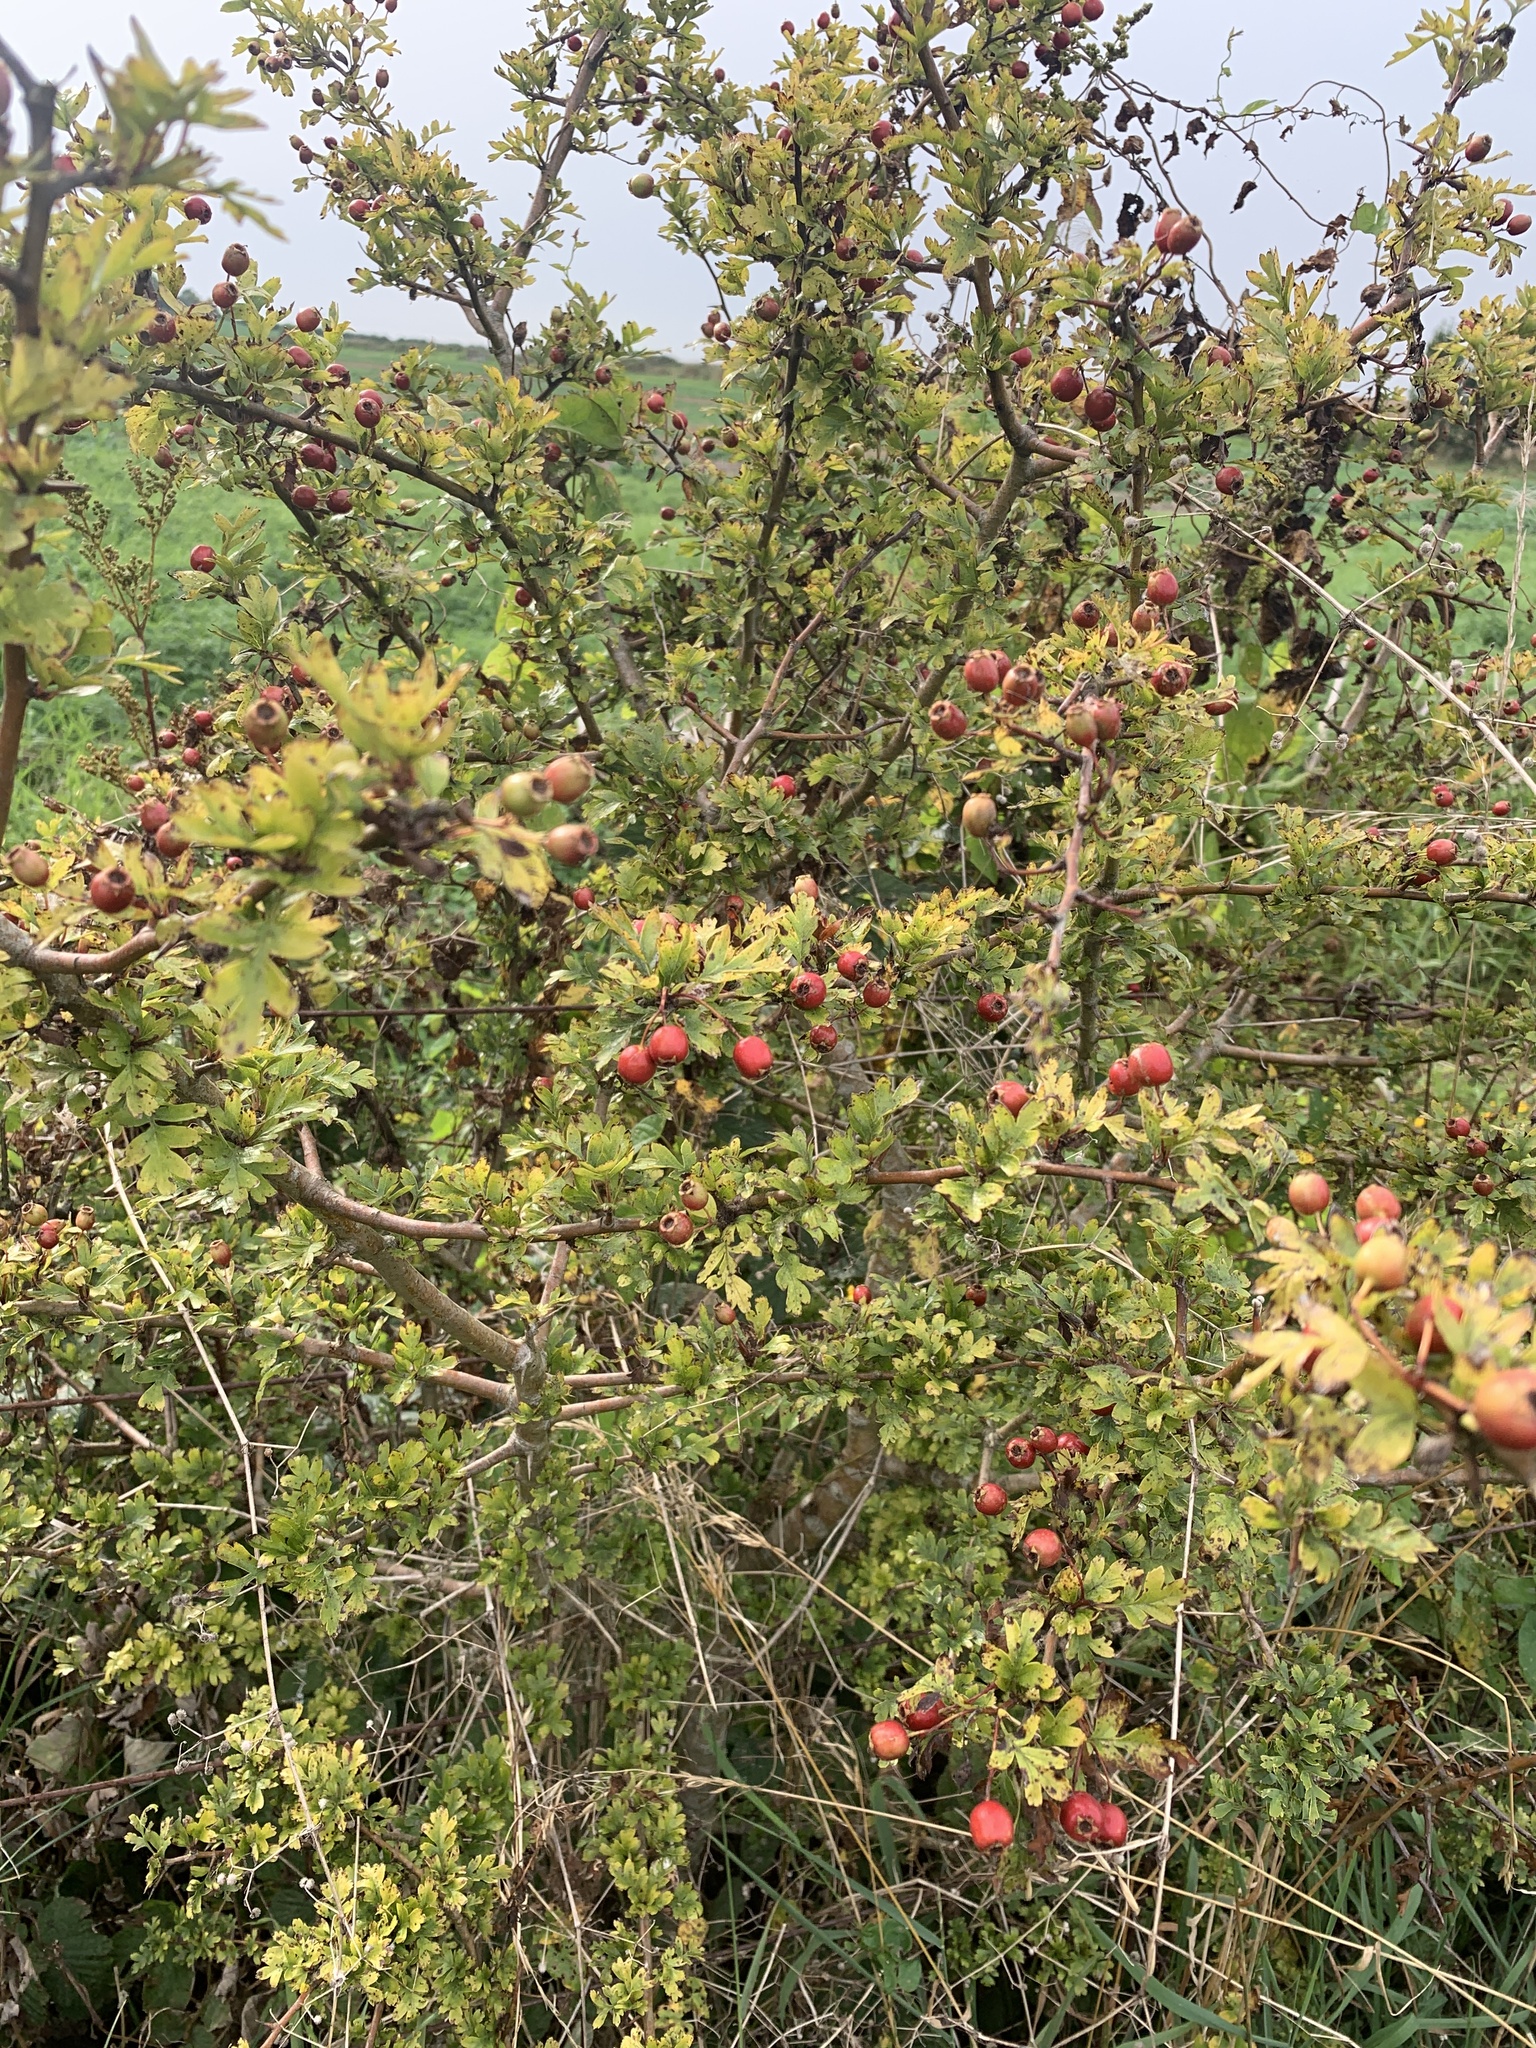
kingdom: Plantae
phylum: Tracheophyta
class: Magnoliopsida
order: Rosales
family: Rosaceae
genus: Crataegus
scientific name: Crataegus monogyna
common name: Hawthorn
